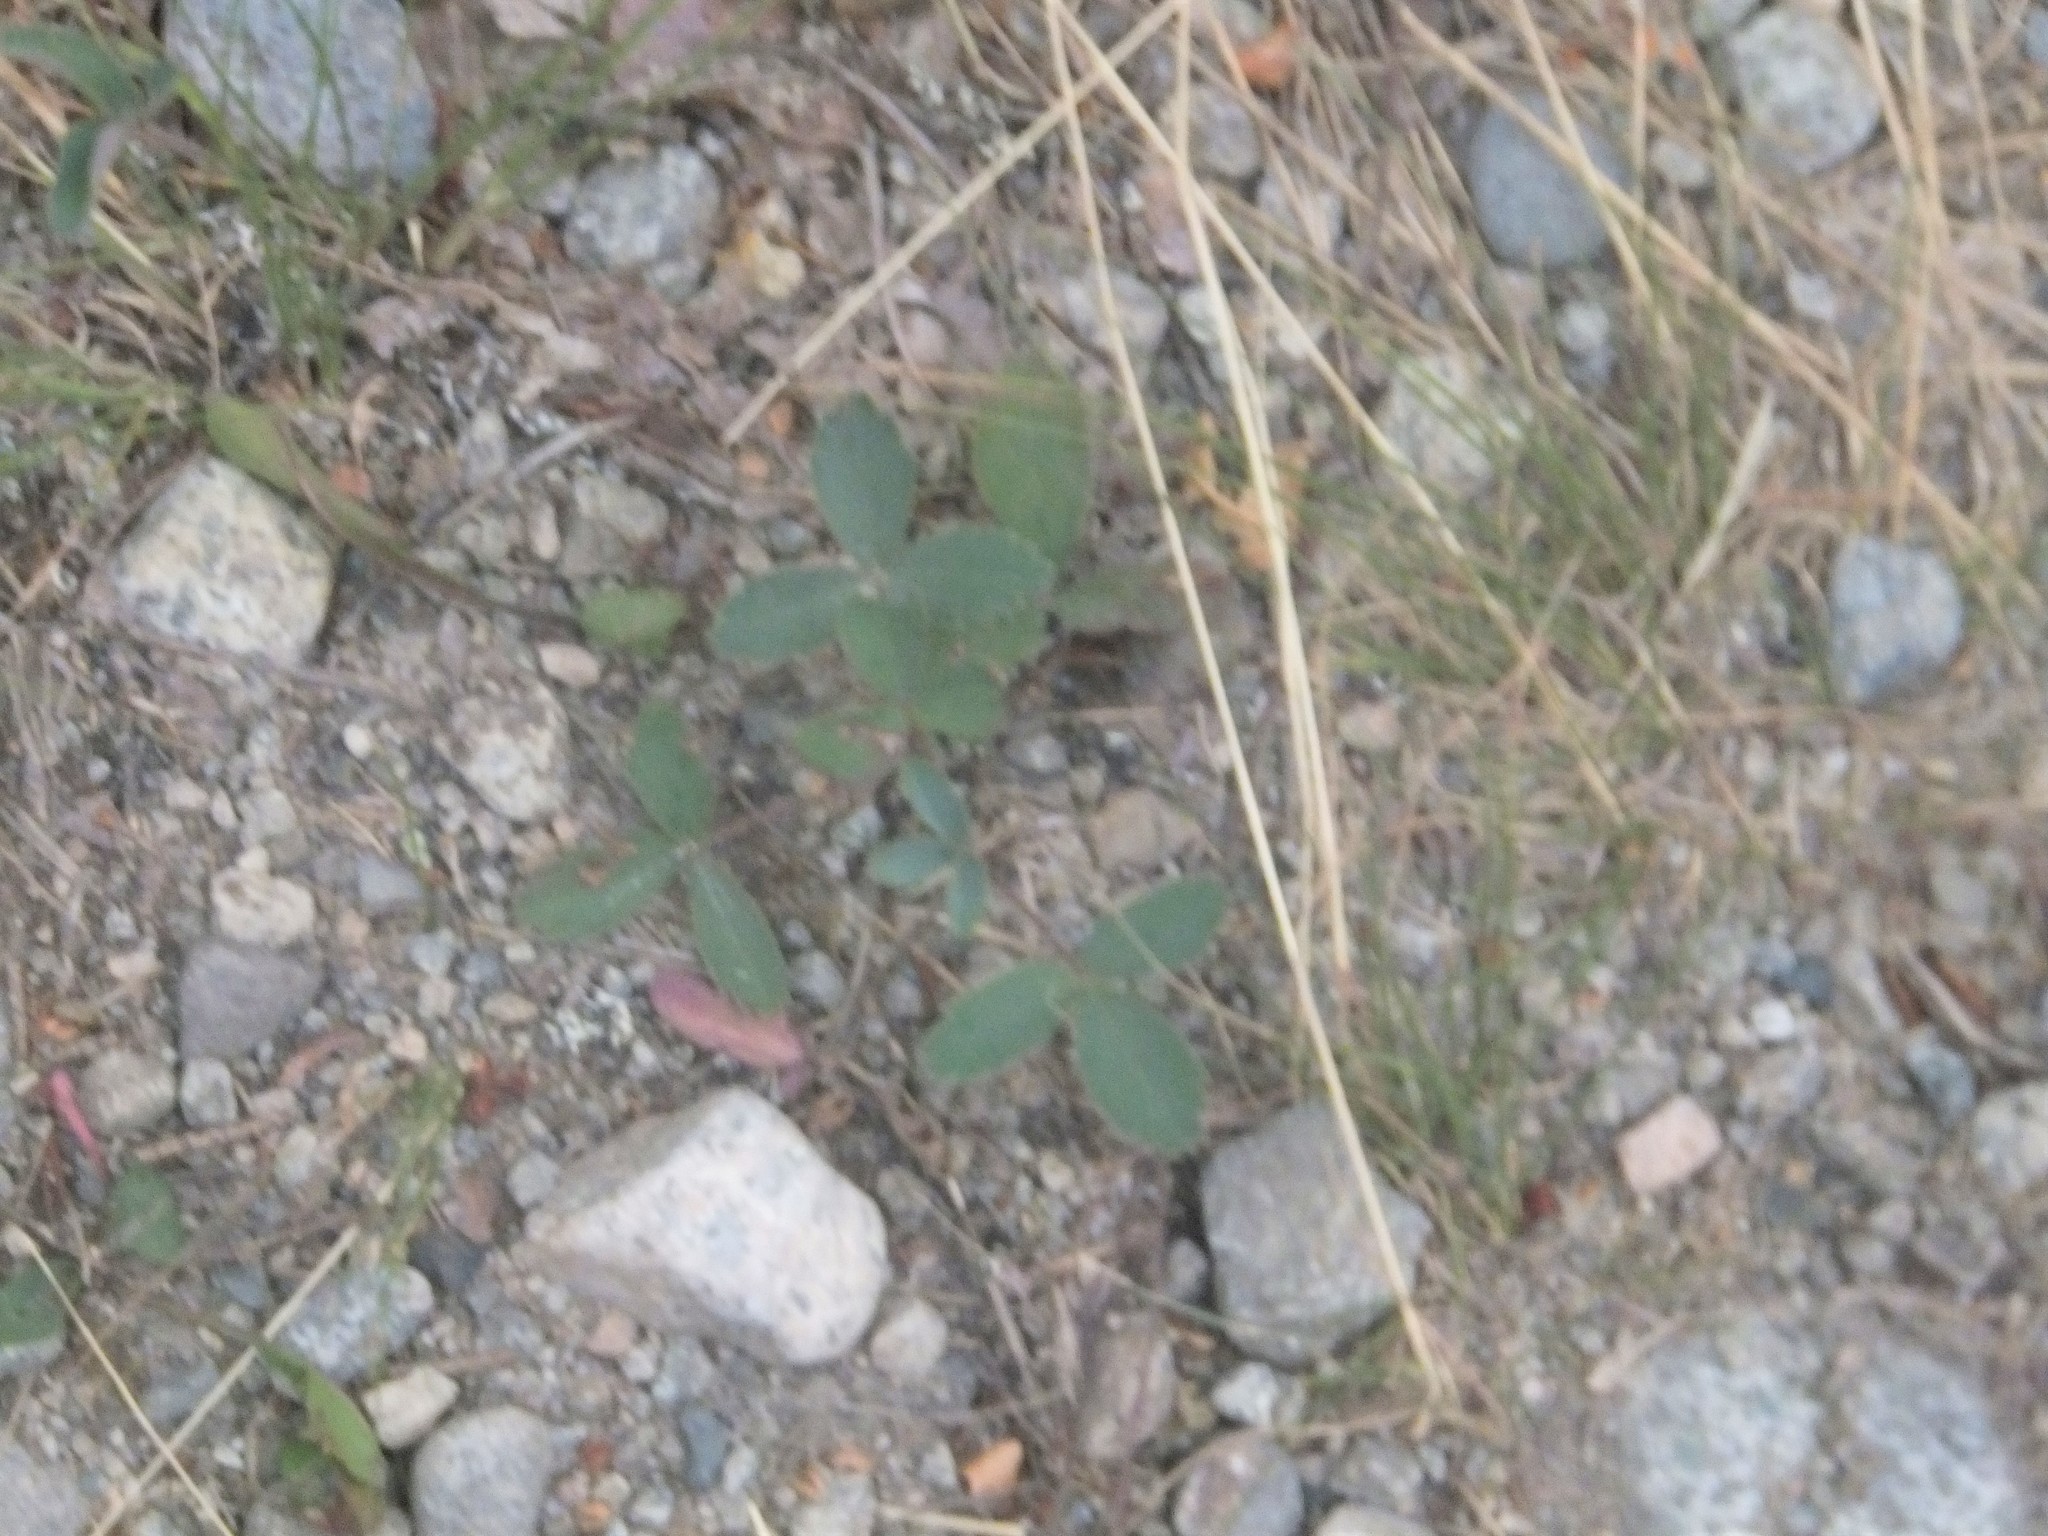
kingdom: Plantae
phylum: Tracheophyta
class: Magnoliopsida
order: Rosales
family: Rosaceae
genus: Fragaria
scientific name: Fragaria virginiana
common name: Thickleaved wild strawberry
